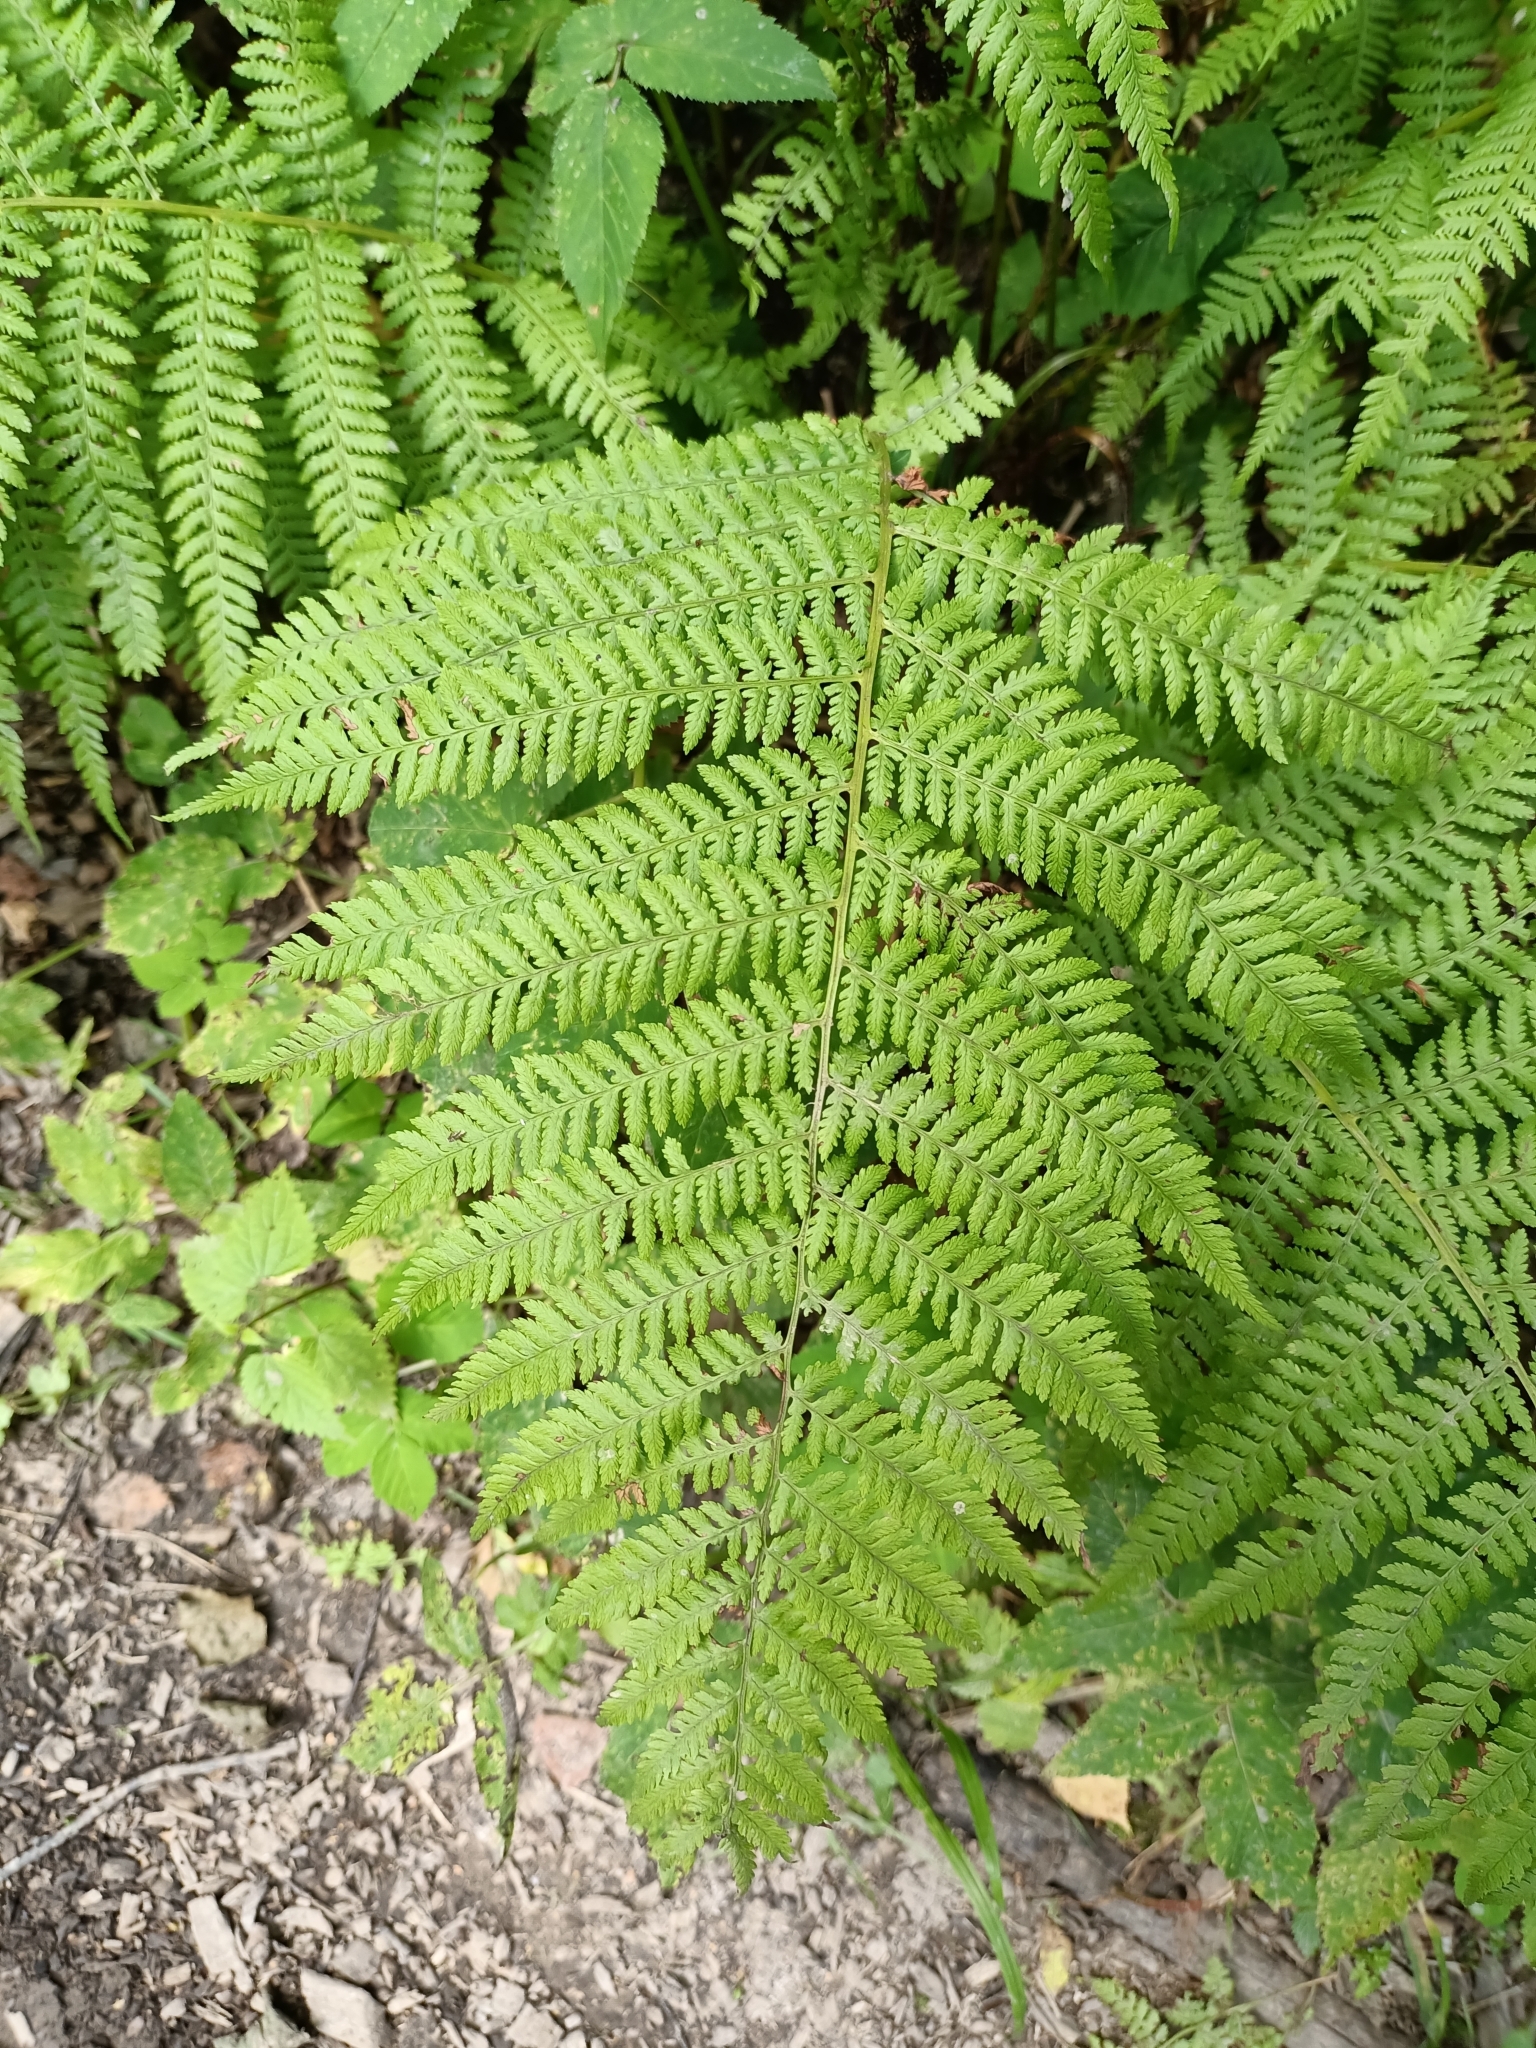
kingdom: Plantae
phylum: Tracheophyta
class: Polypodiopsida
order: Polypodiales
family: Athyriaceae
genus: Athyrium
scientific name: Athyrium filix-femina
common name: Lady fern
